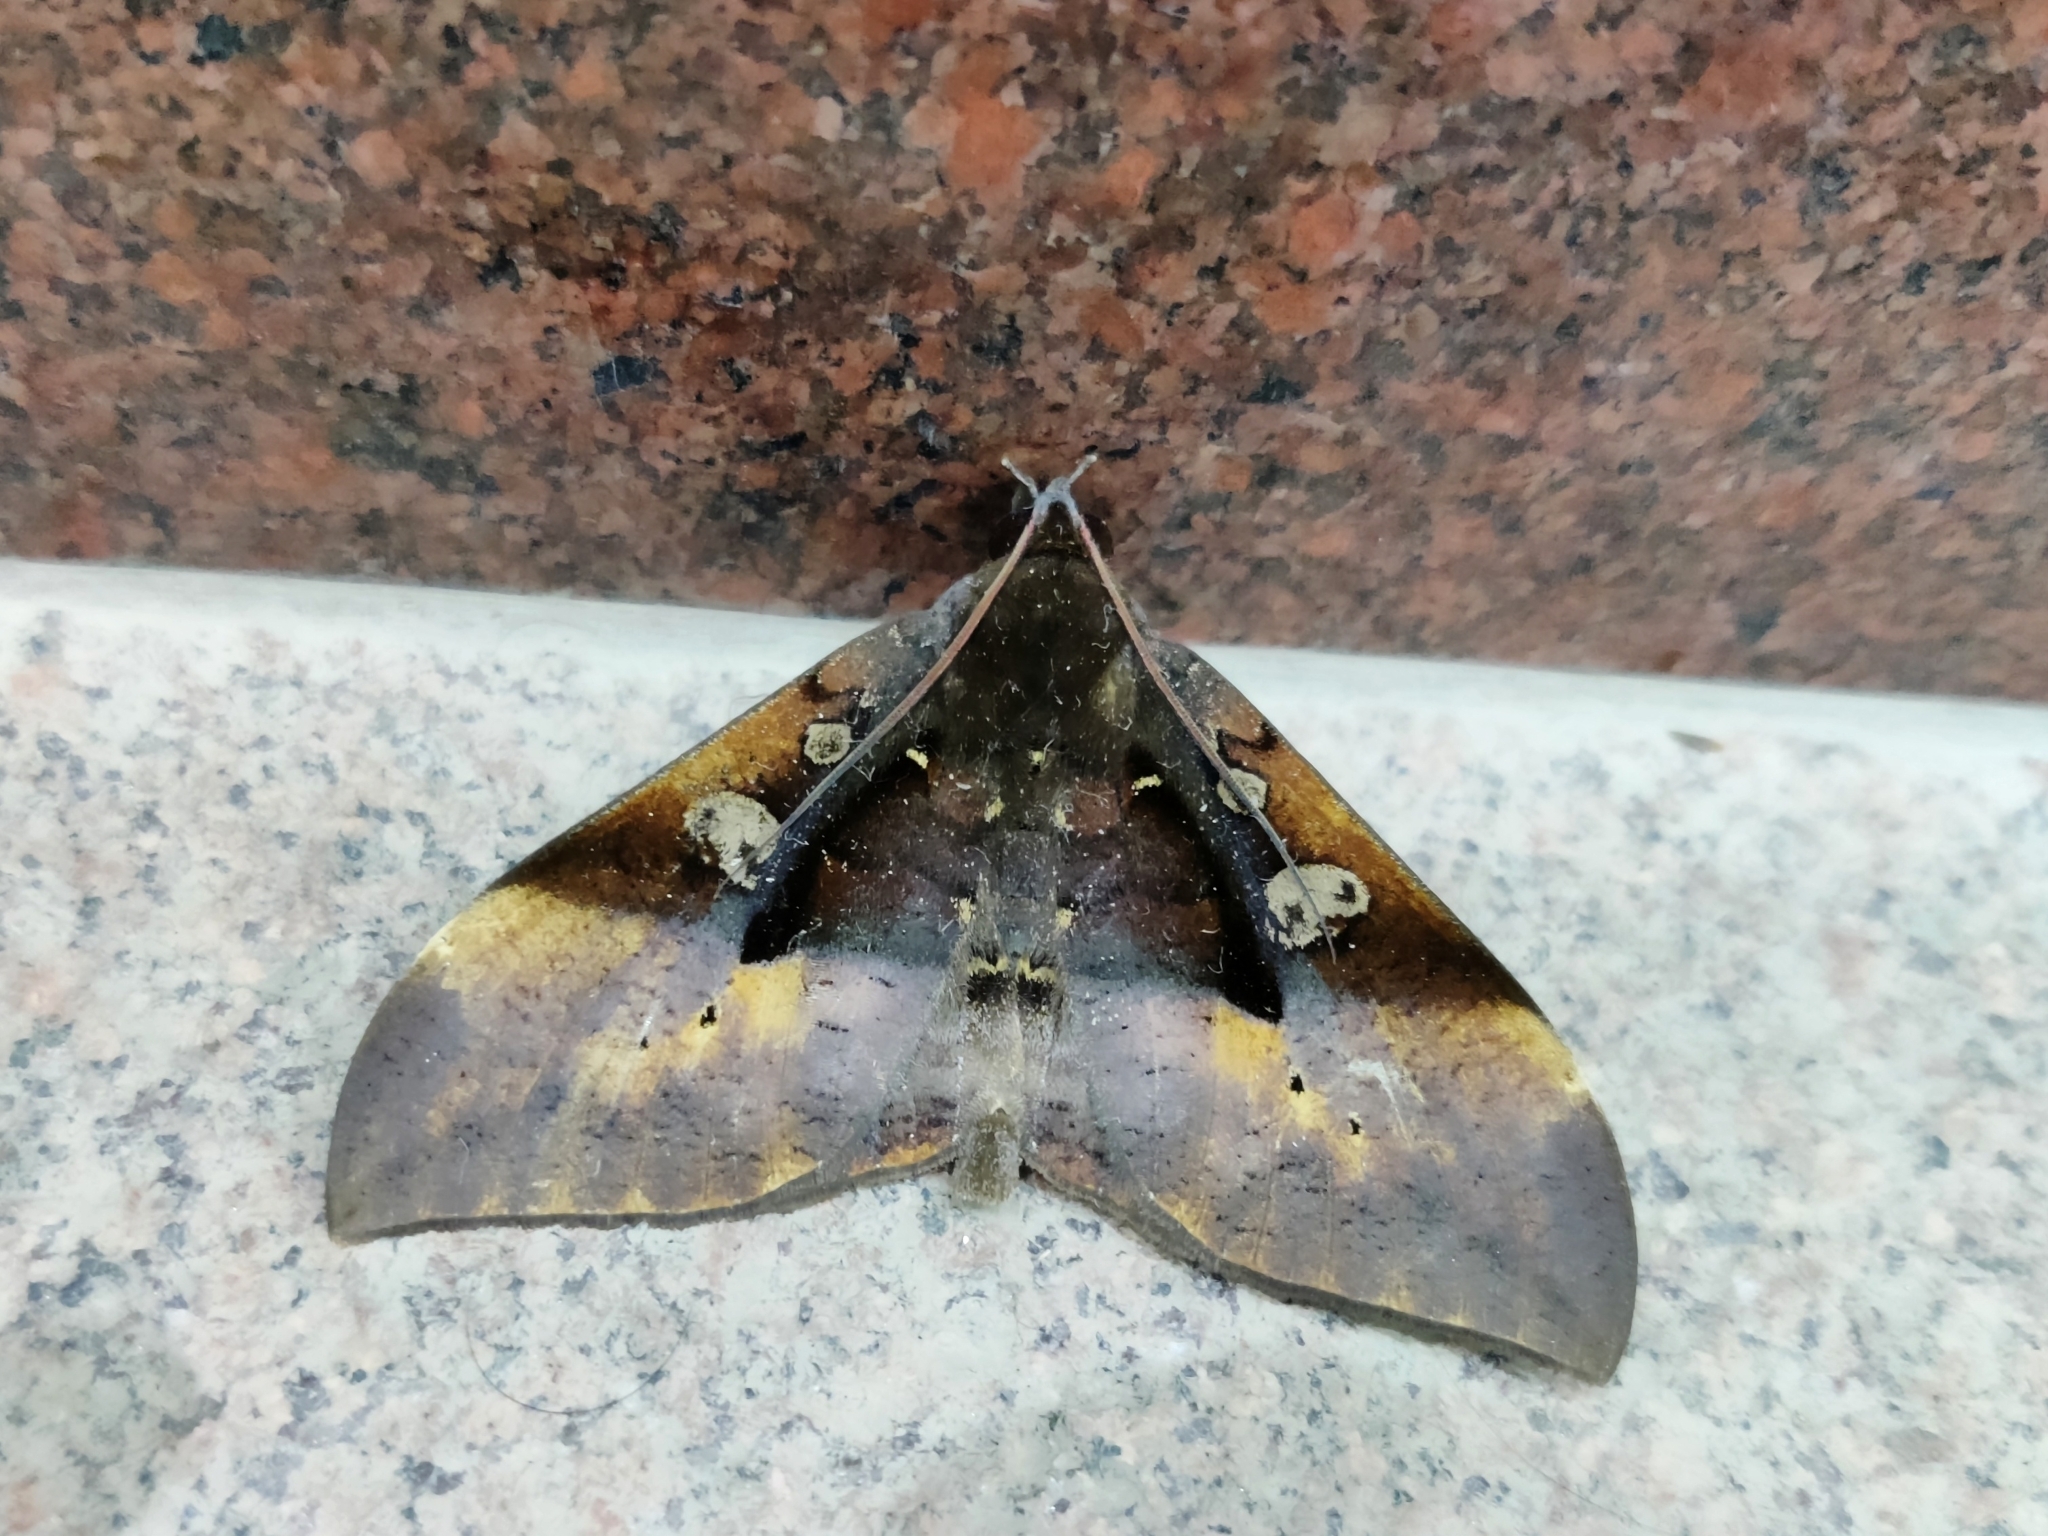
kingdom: Animalia
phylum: Arthropoda
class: Insecta
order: Lepidoptera
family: Erebidae
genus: Ischyja
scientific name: Ischyja manlia
